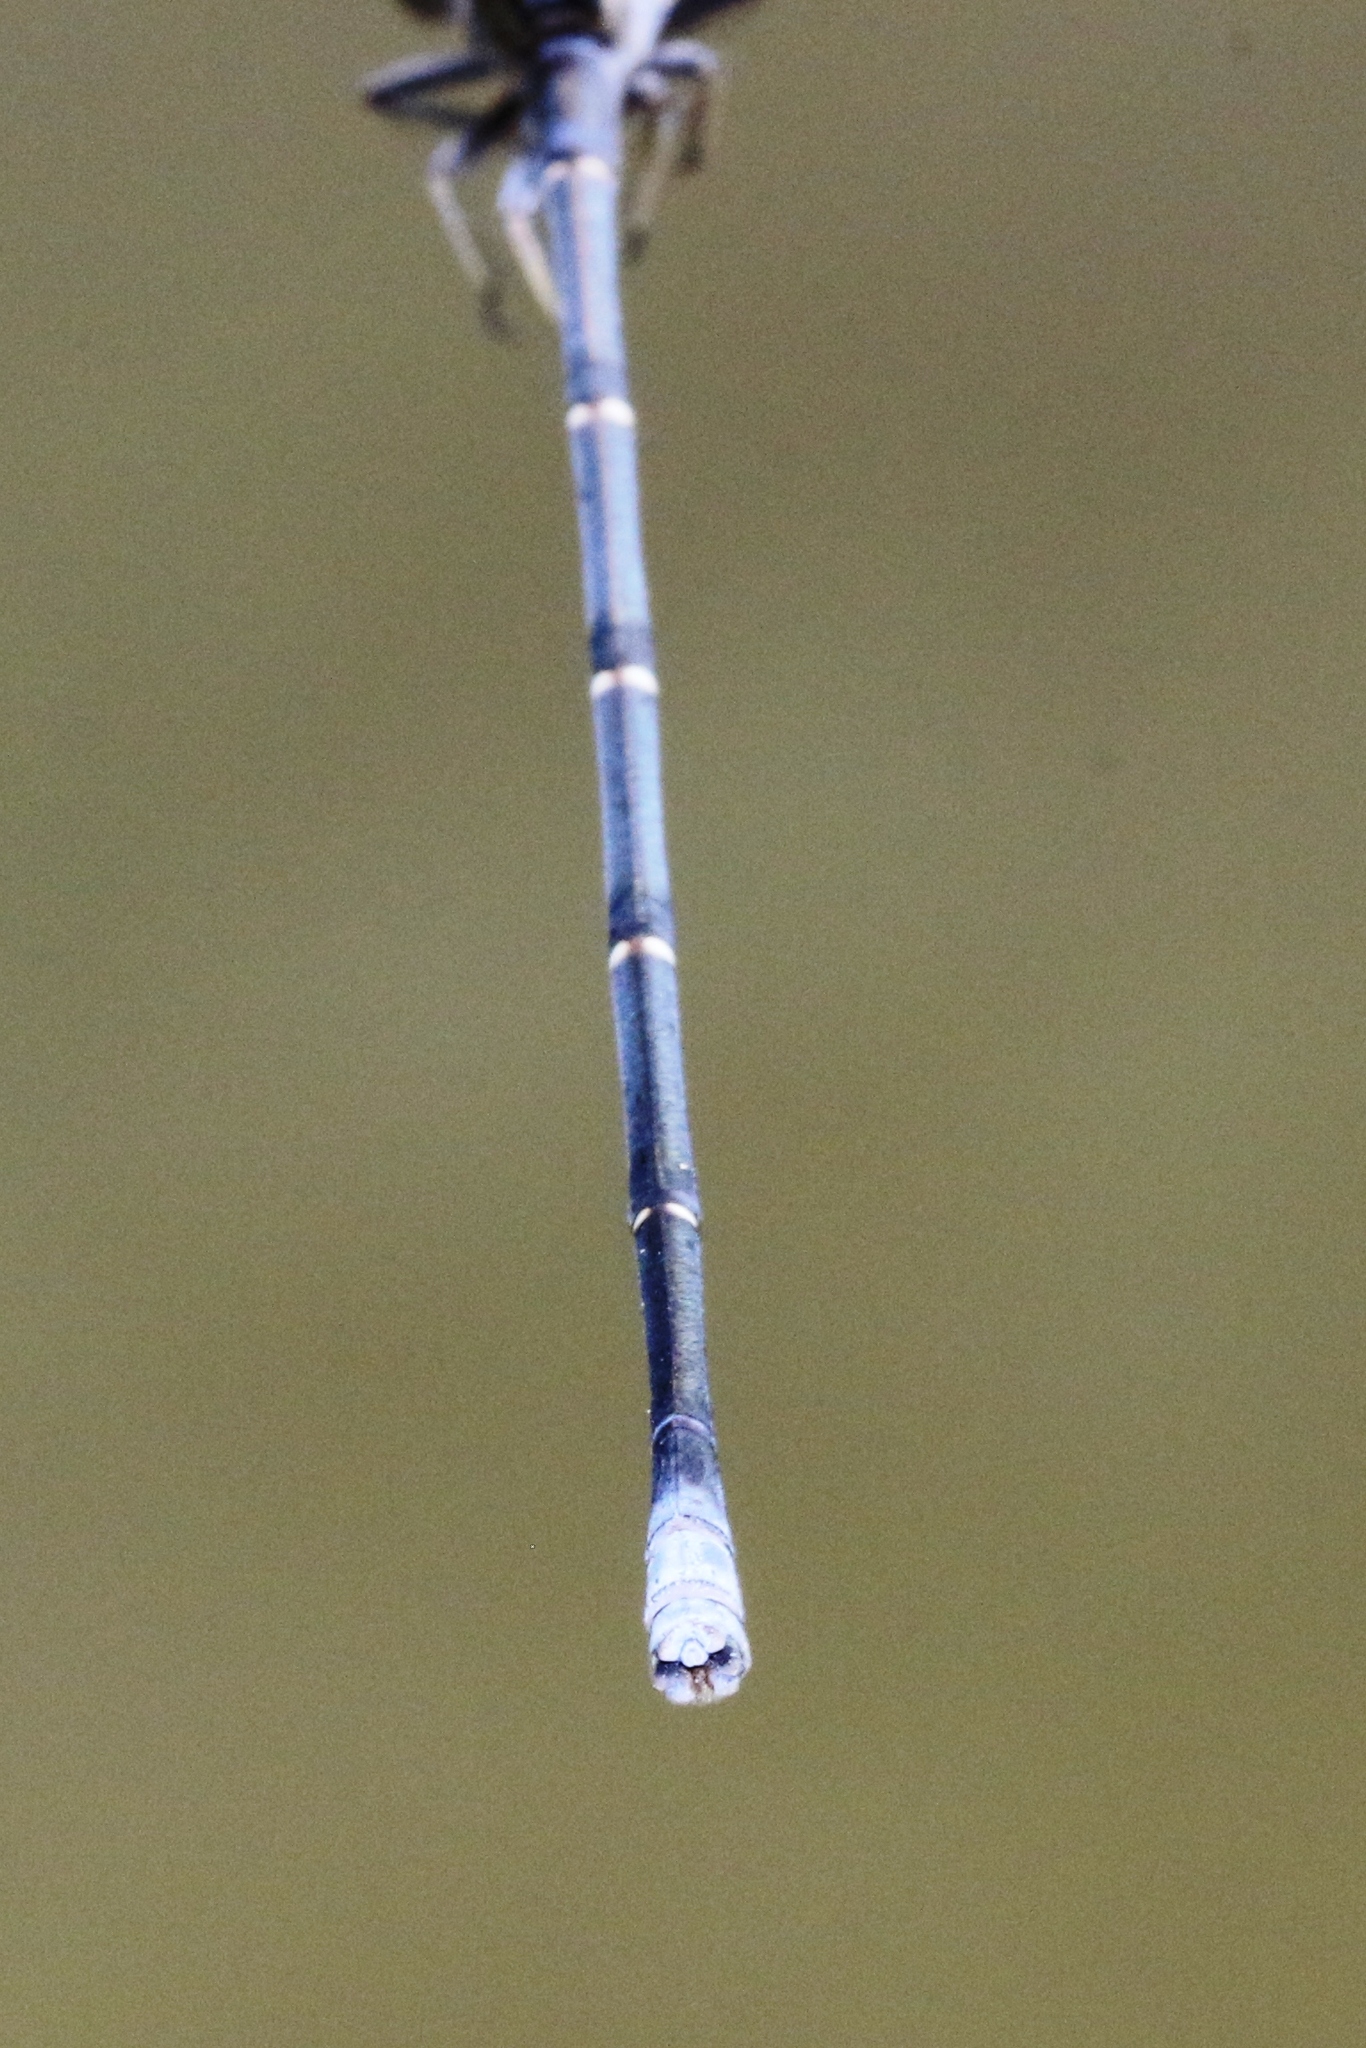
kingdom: Animalia
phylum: Arthropoda
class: Insecta
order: Odonata
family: Coenagrionidae
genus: Argia
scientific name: Argia moesta
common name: Powdered dancer
